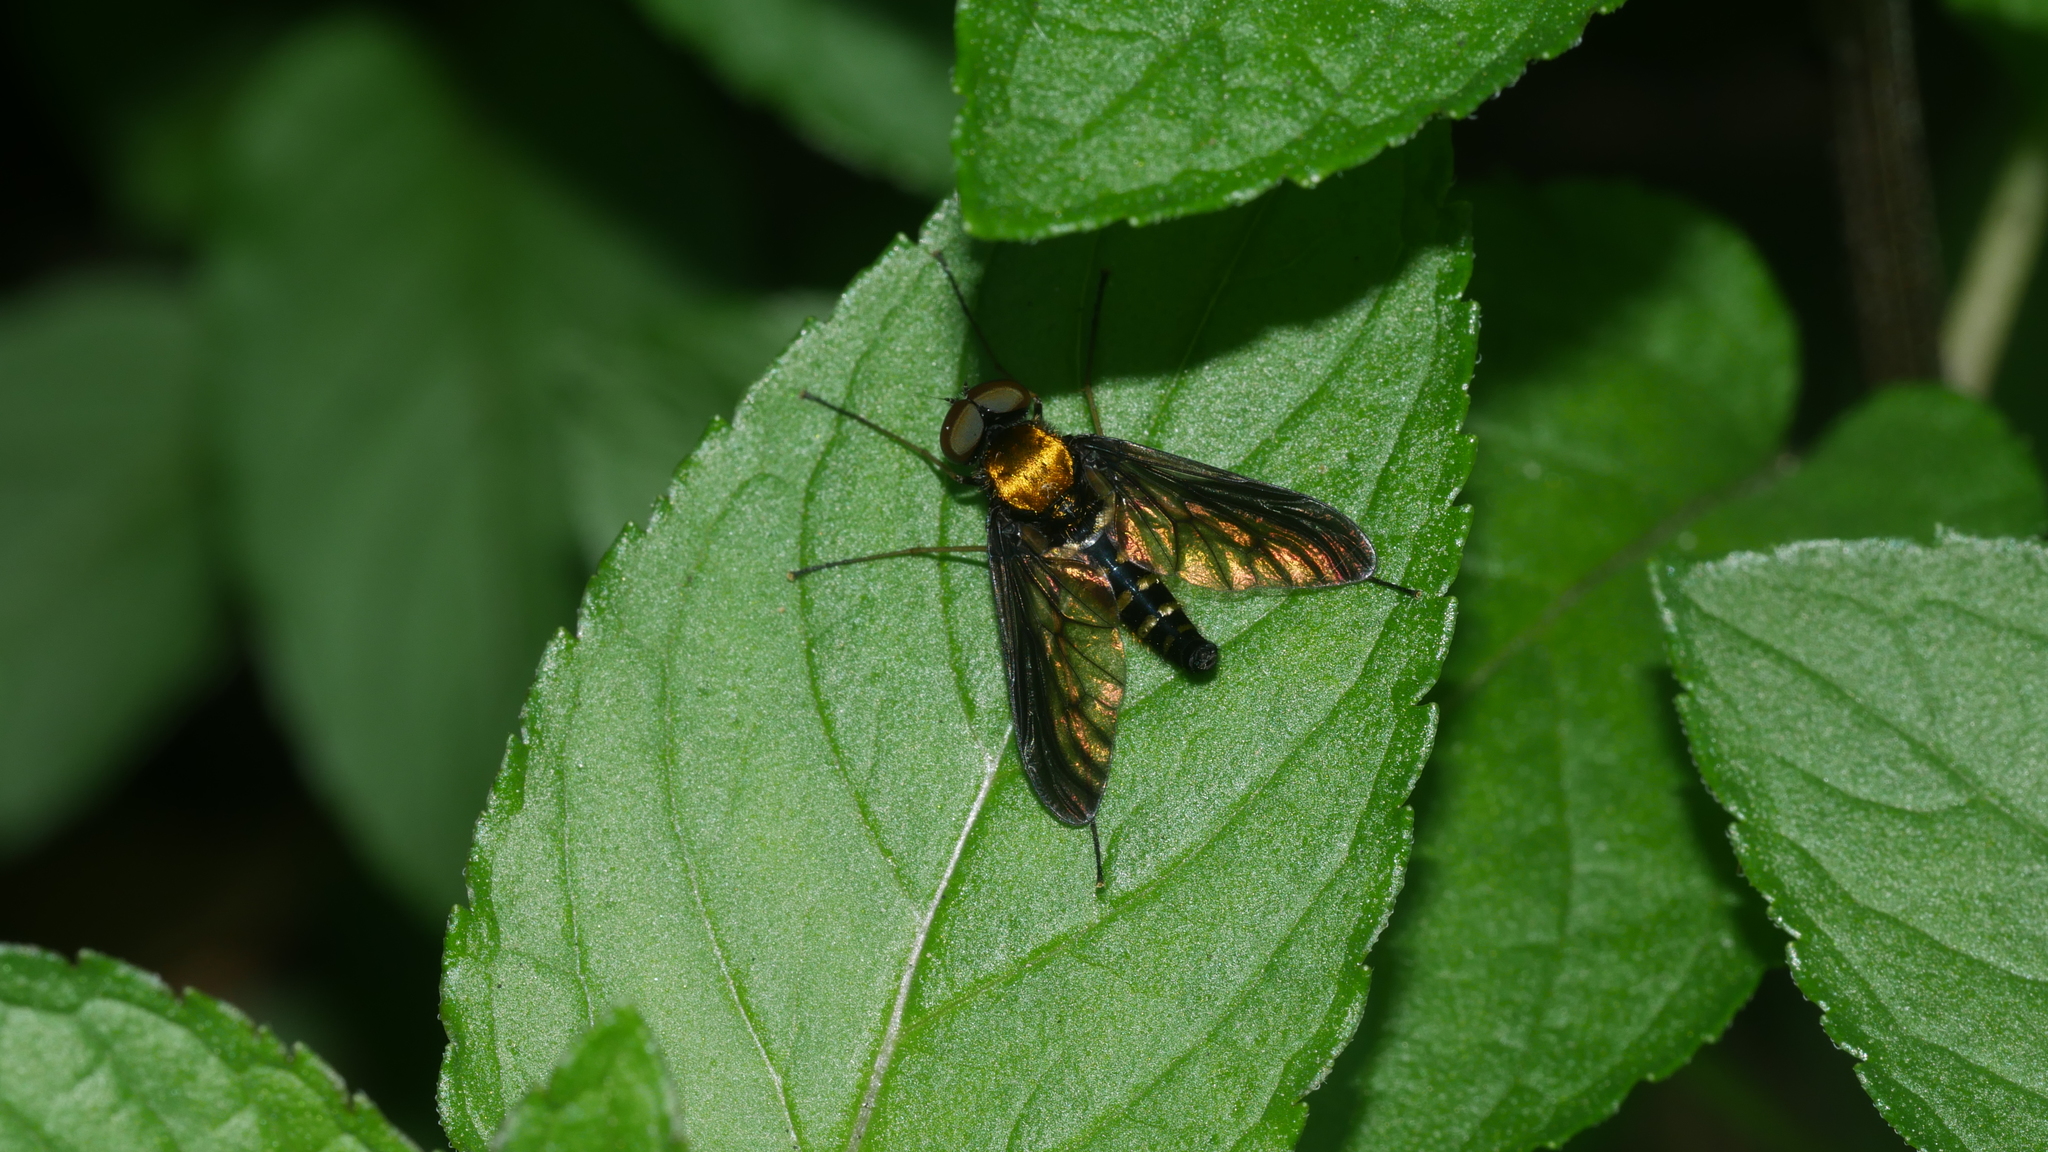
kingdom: Animalia
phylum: Arthropoda
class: Insecta
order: Diptera
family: Rhagionidae
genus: Chrysopilus
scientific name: Chrysopilus thoracicus
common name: Golden-backed snipe fly
